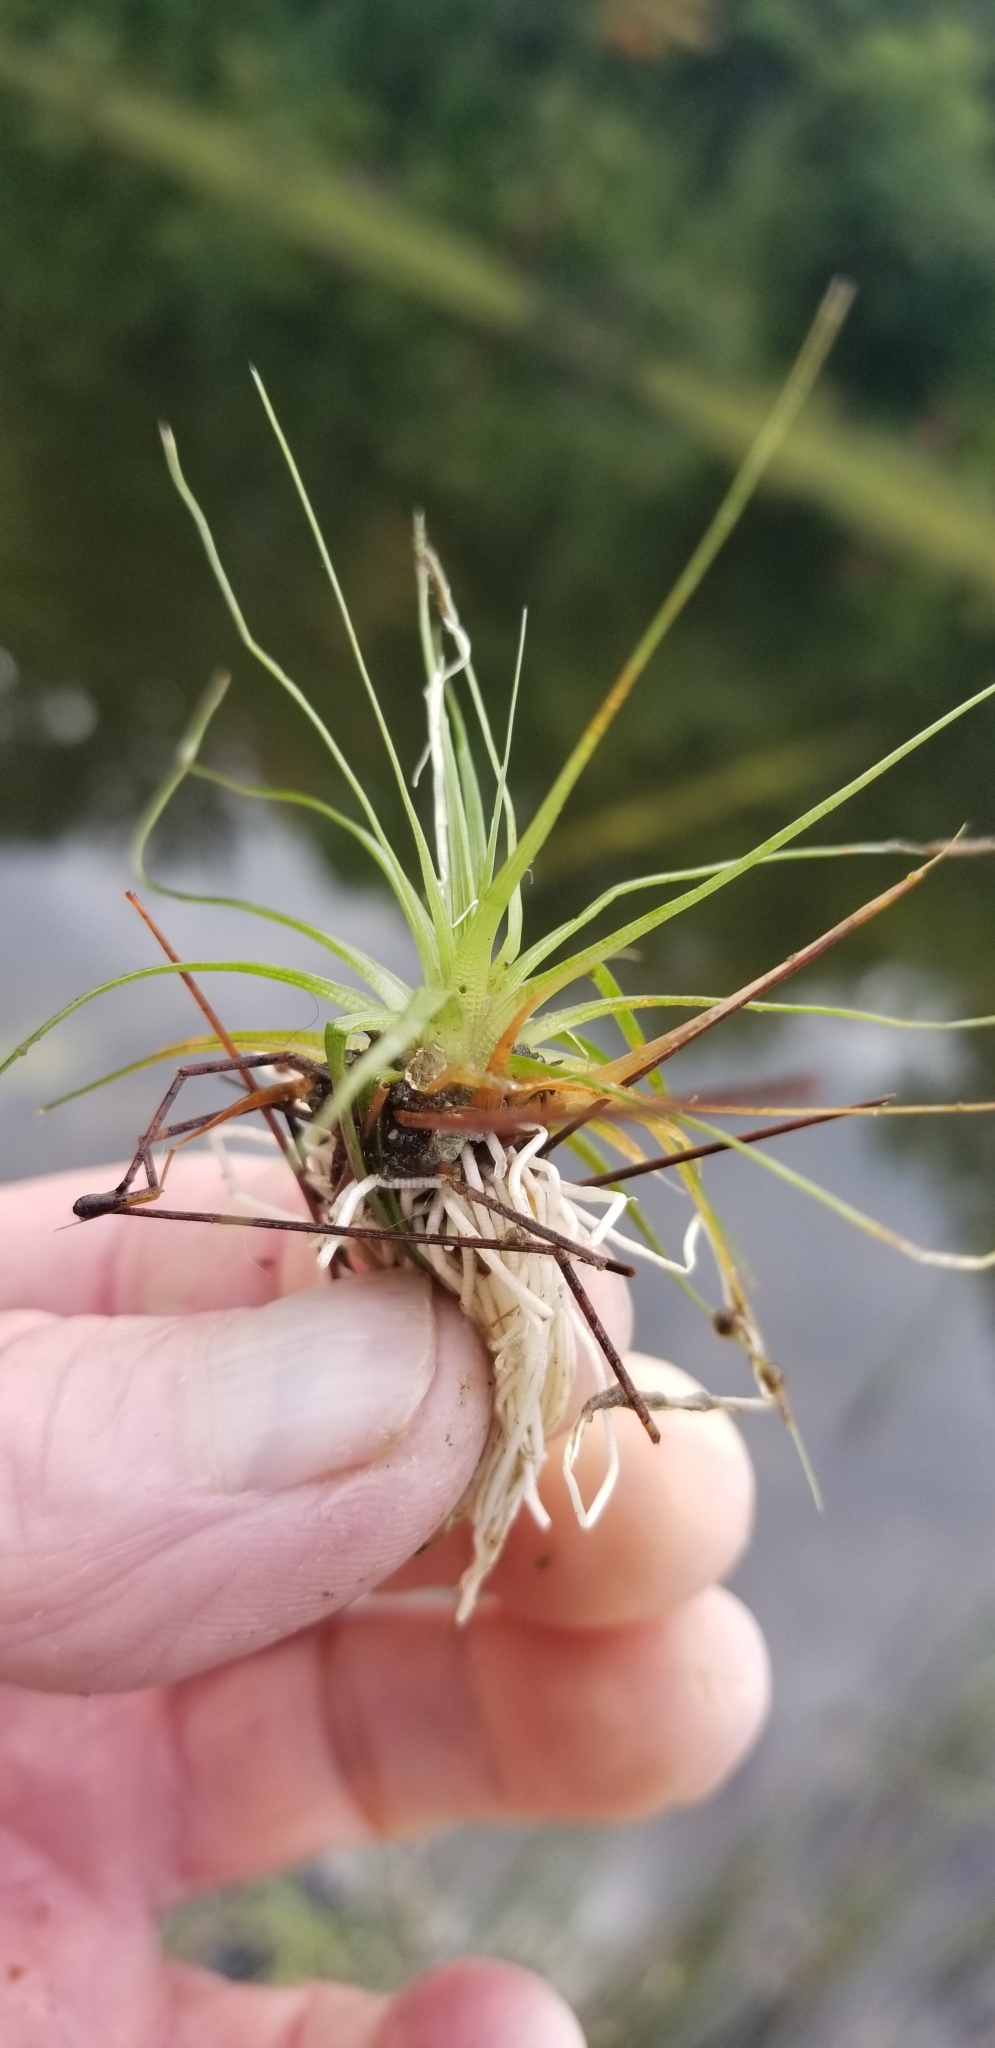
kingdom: Plantae
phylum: Tracheophyta
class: Liliopsida
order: Poales
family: Eriocaulaceae
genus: Eriocaulon
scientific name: Eriocaulon aquaticum
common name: Pipewort
